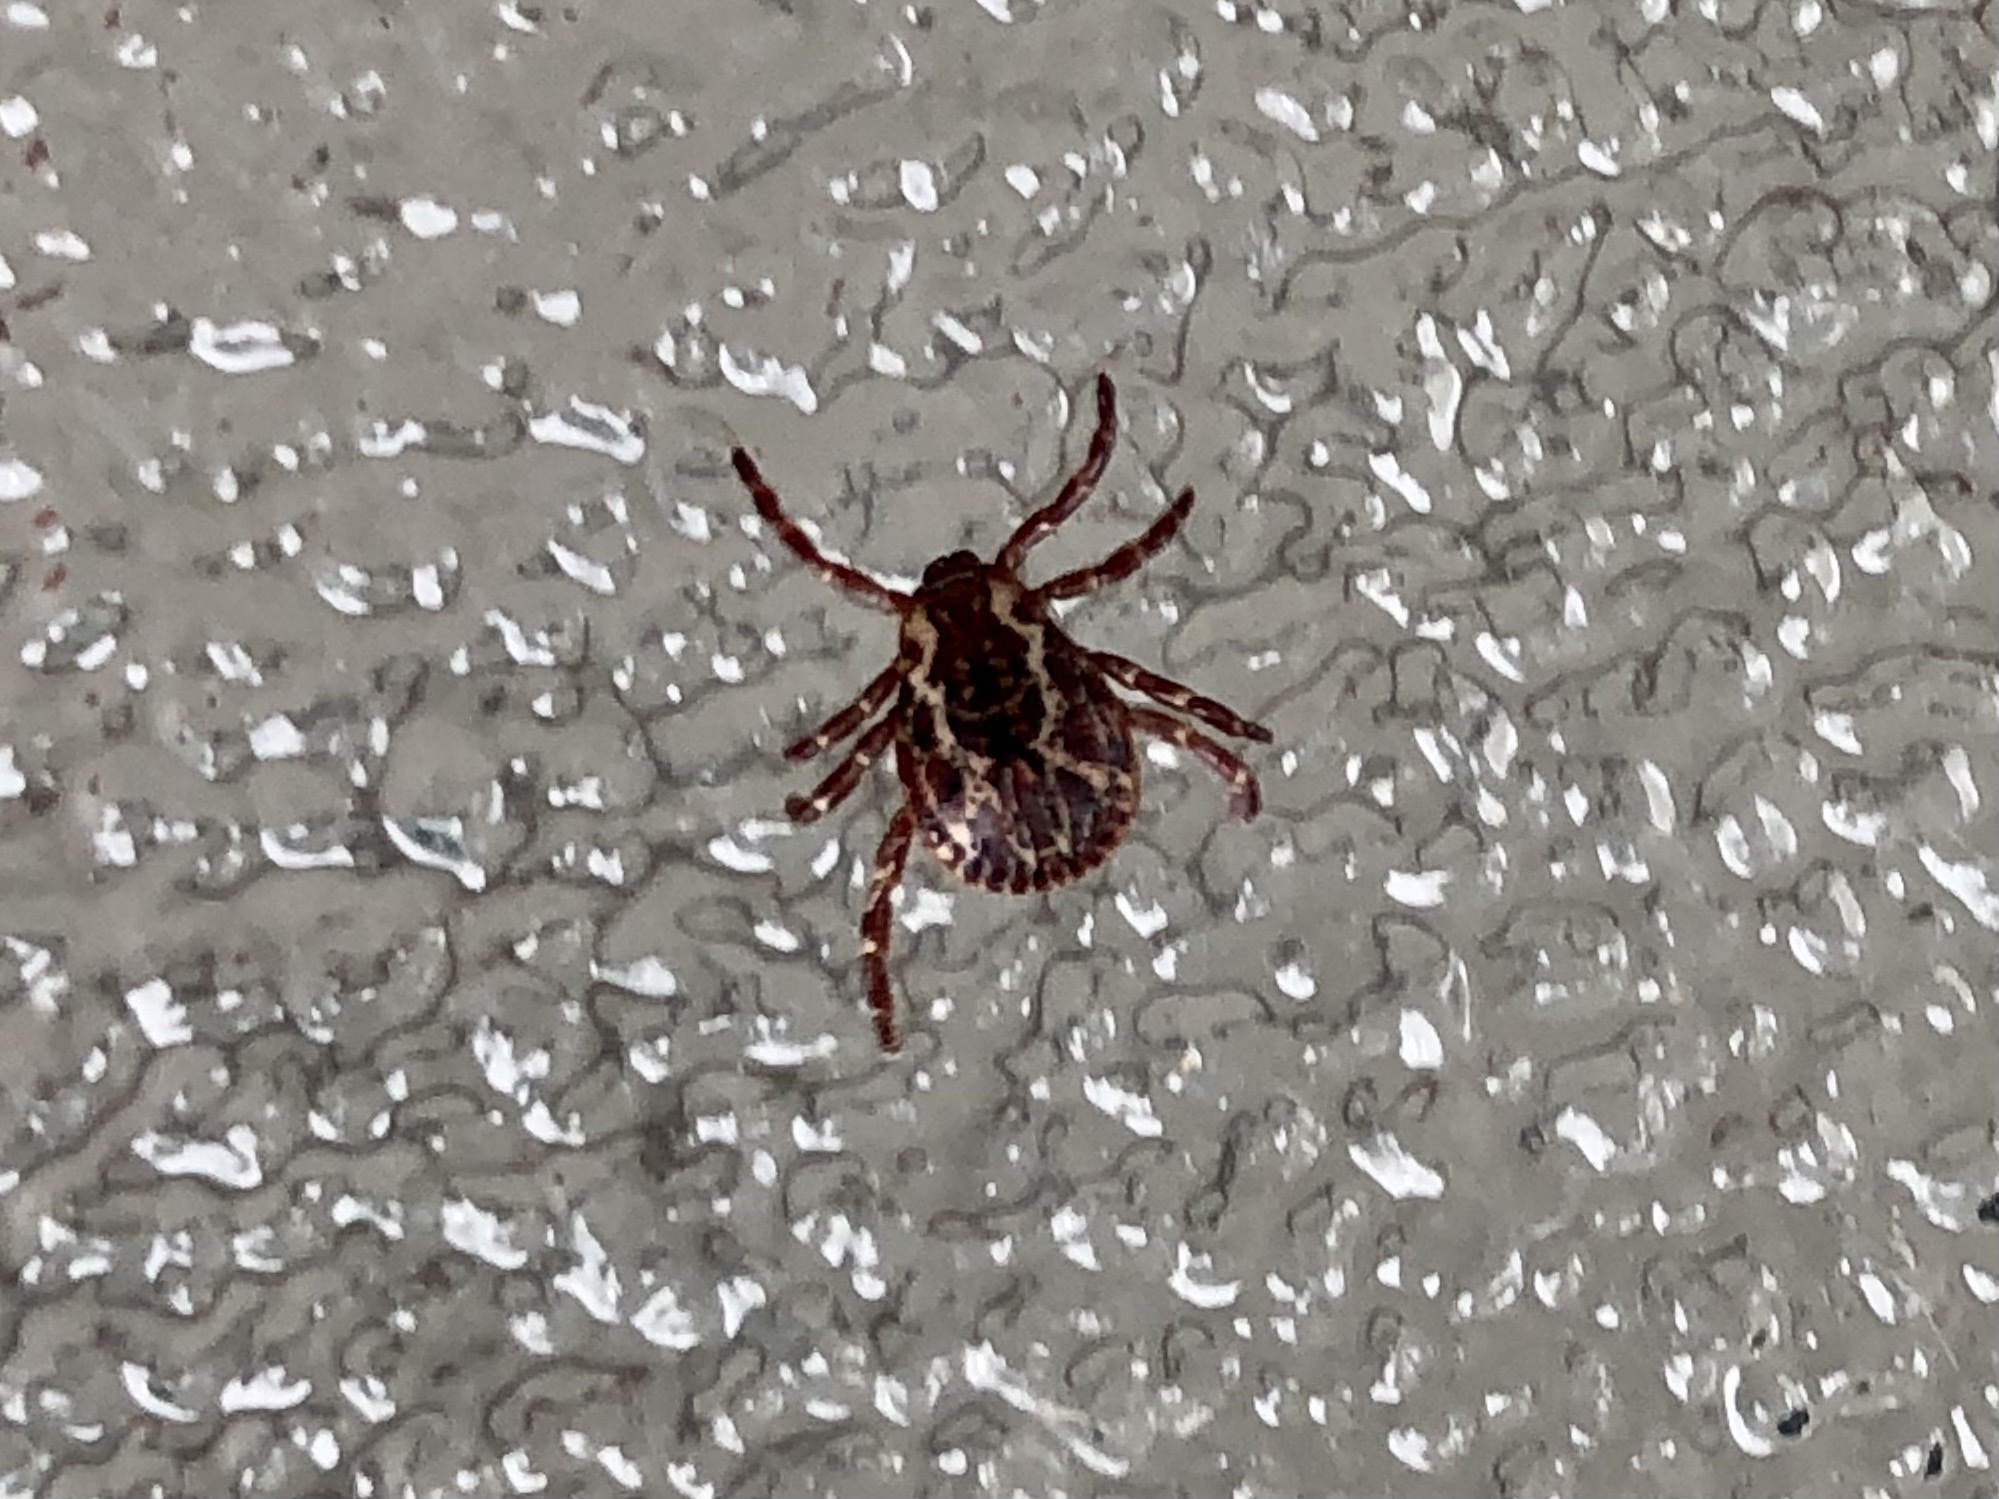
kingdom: Animalia
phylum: Arthropoda
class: Arachnida
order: Ixodida
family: Ixodidae
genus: Dermacentor
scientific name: Dermacentor variabilis
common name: American dog tick
